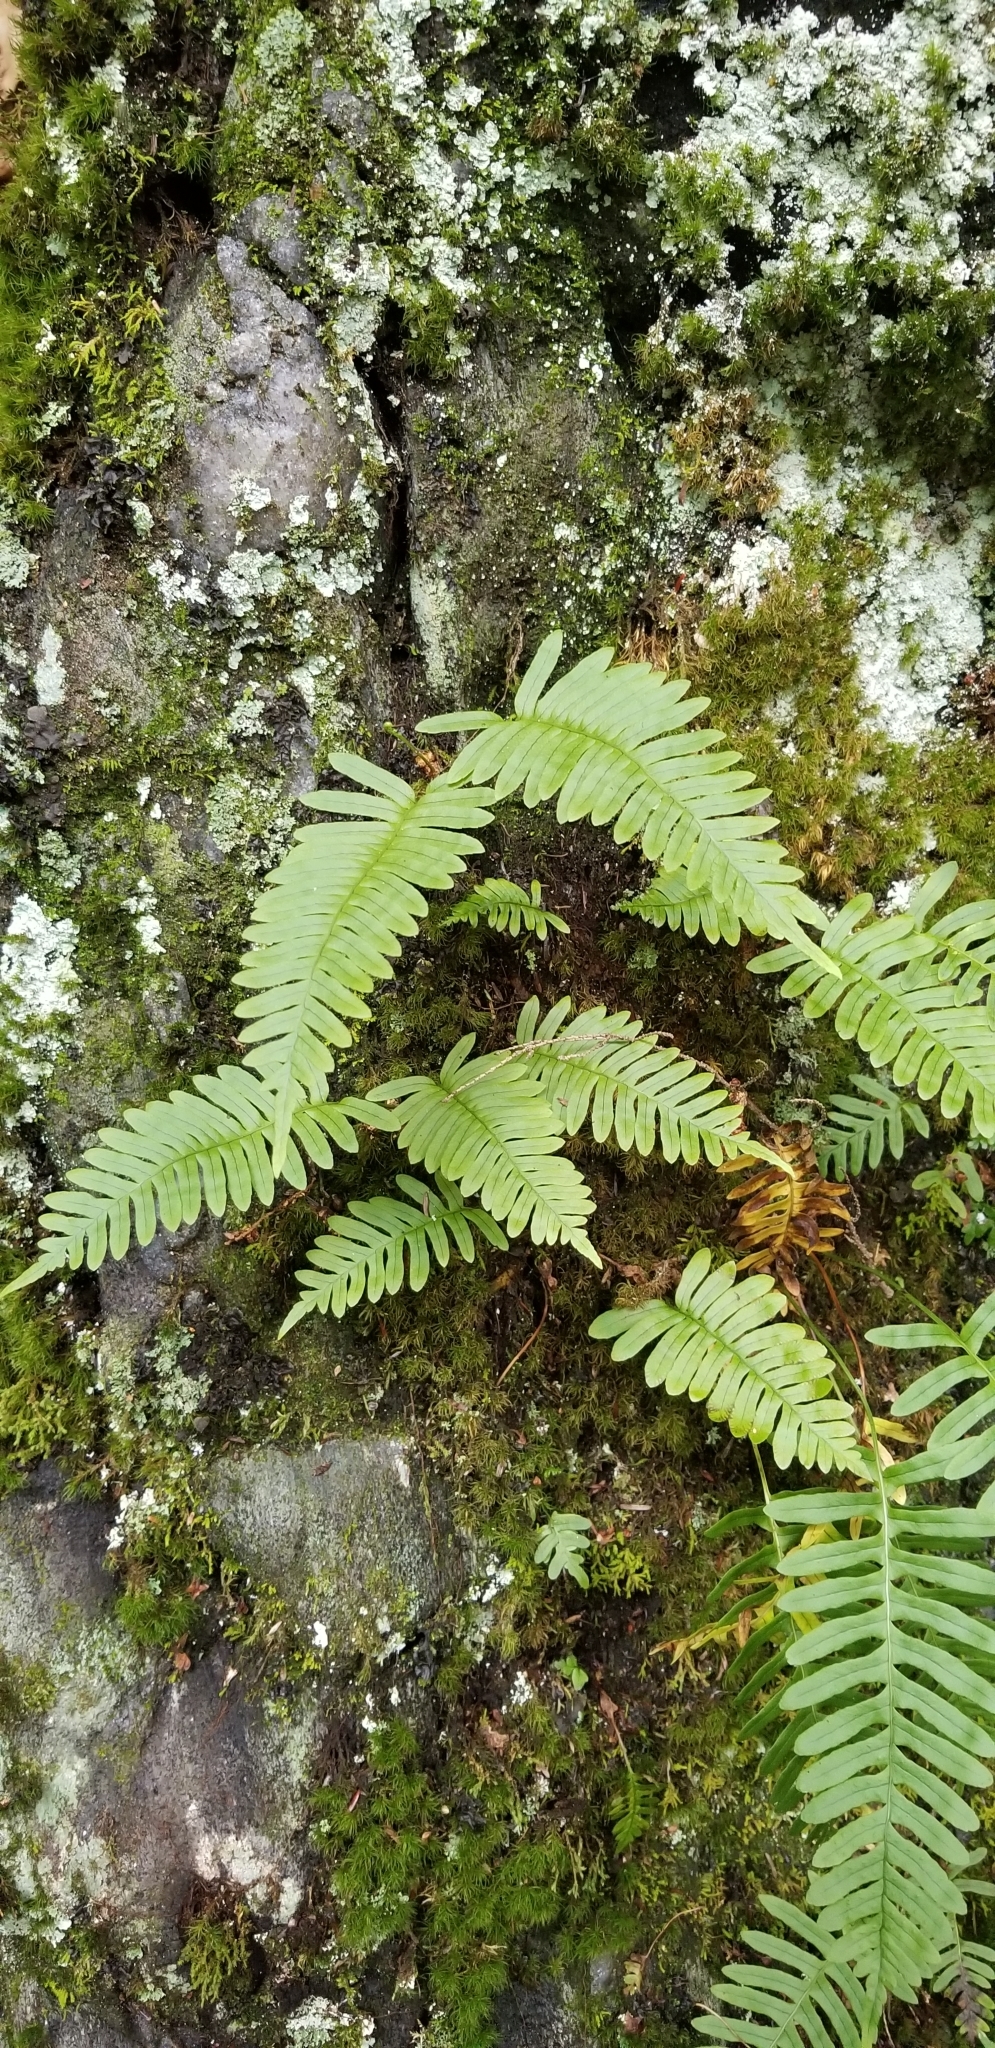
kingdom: Plantae
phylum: Tracheophyta
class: Polypodiopsida
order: Polypodiales
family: Polypodiaceae
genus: Polypodium
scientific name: Polypodium virginianum
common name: American wall fern
